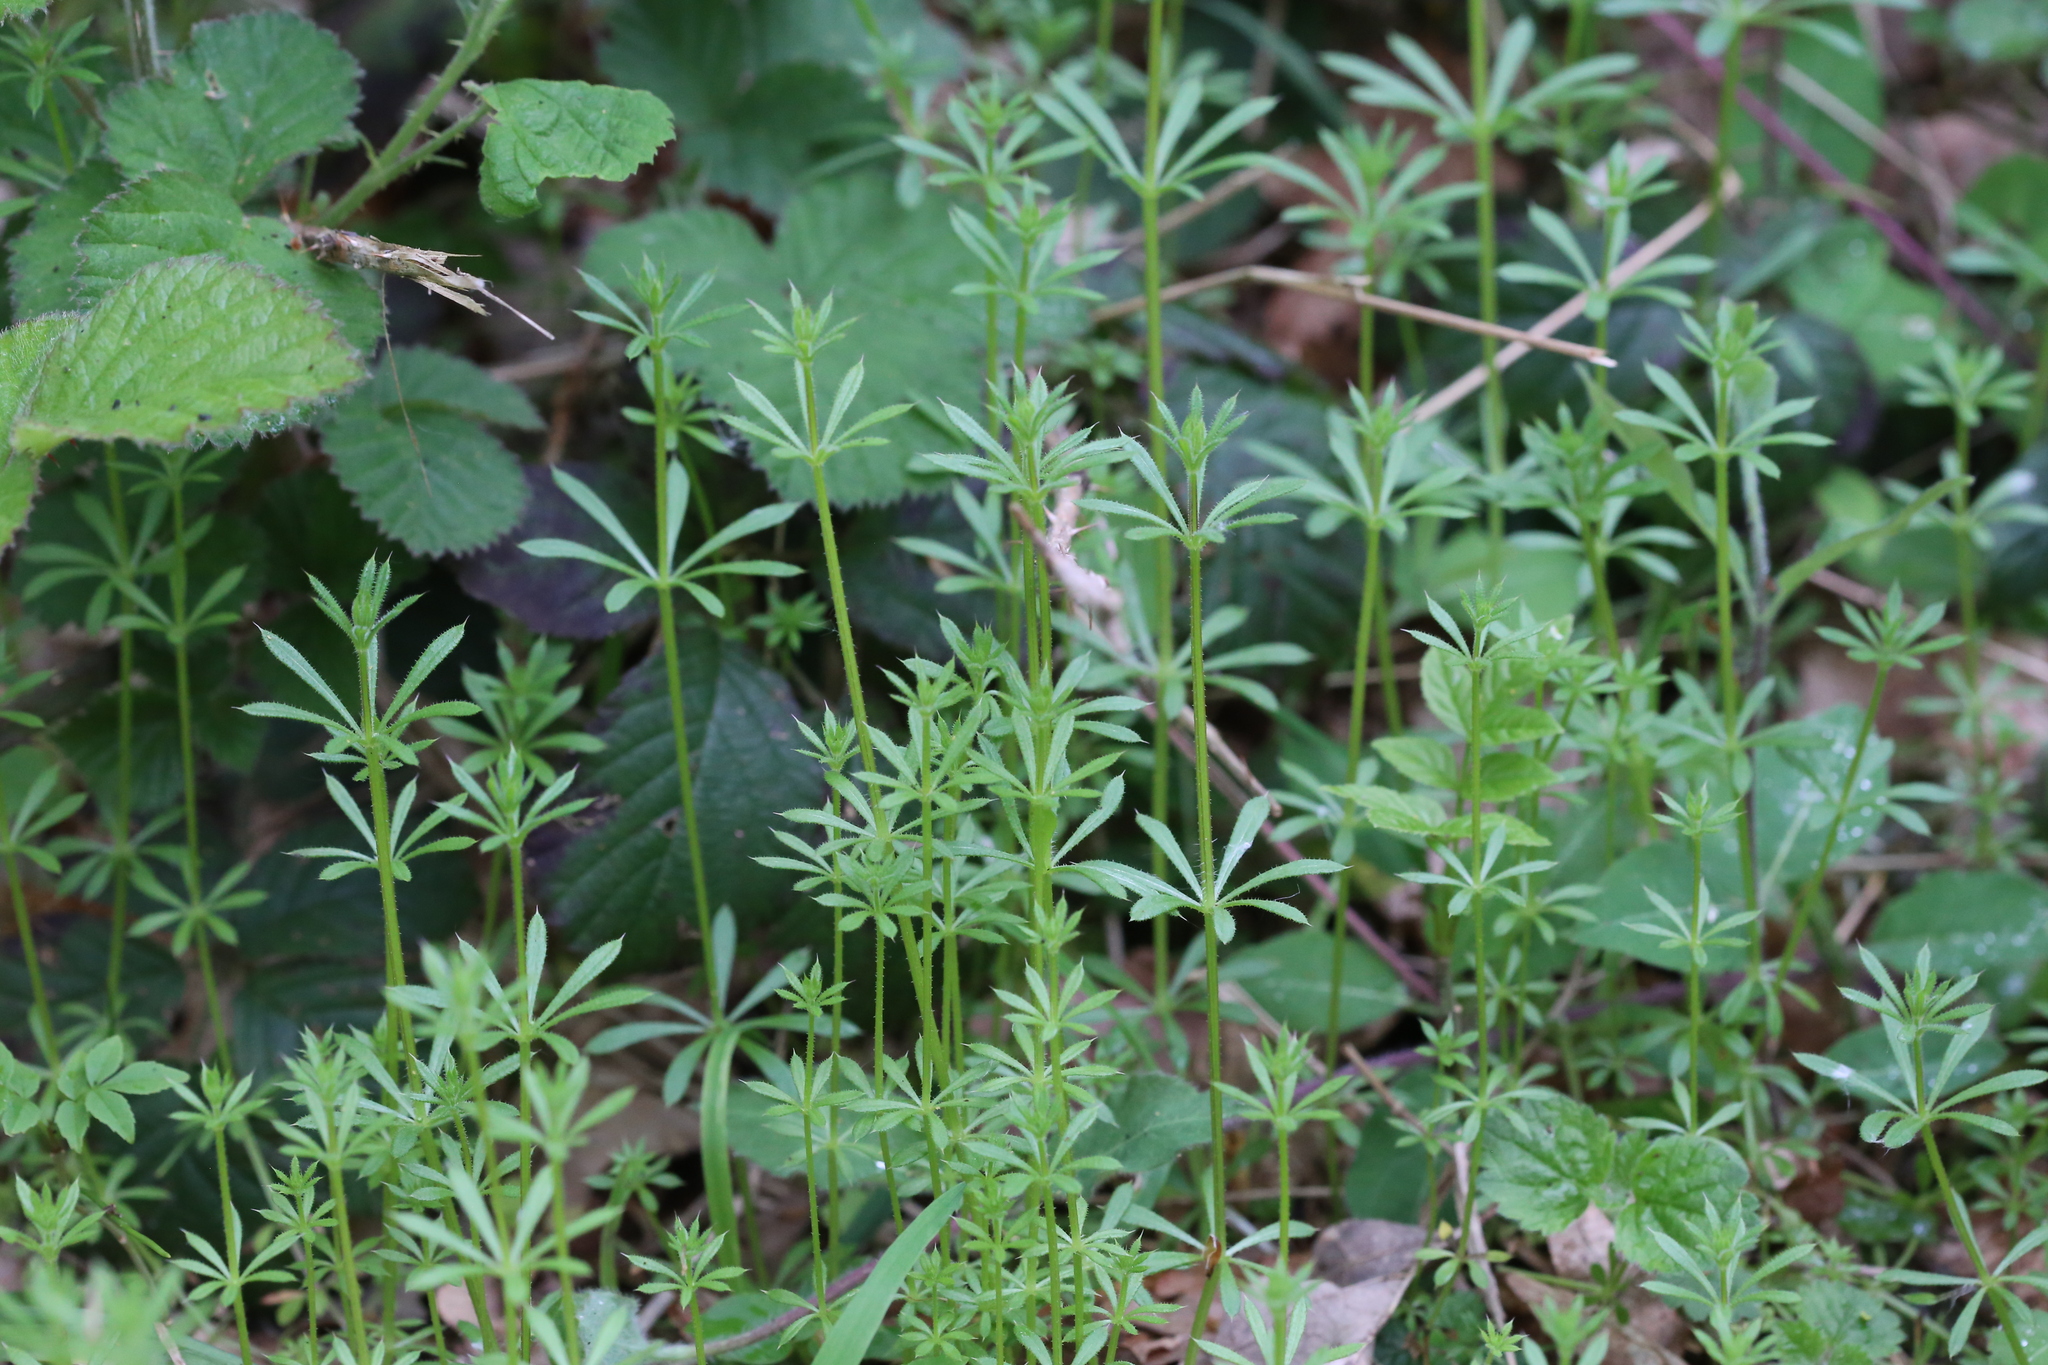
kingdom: Plantae
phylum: Tracheophyta
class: Magnoliopsida
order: Gentianales
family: Rubiaceae
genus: Galium
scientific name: Galium aparine
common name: Cleavers
